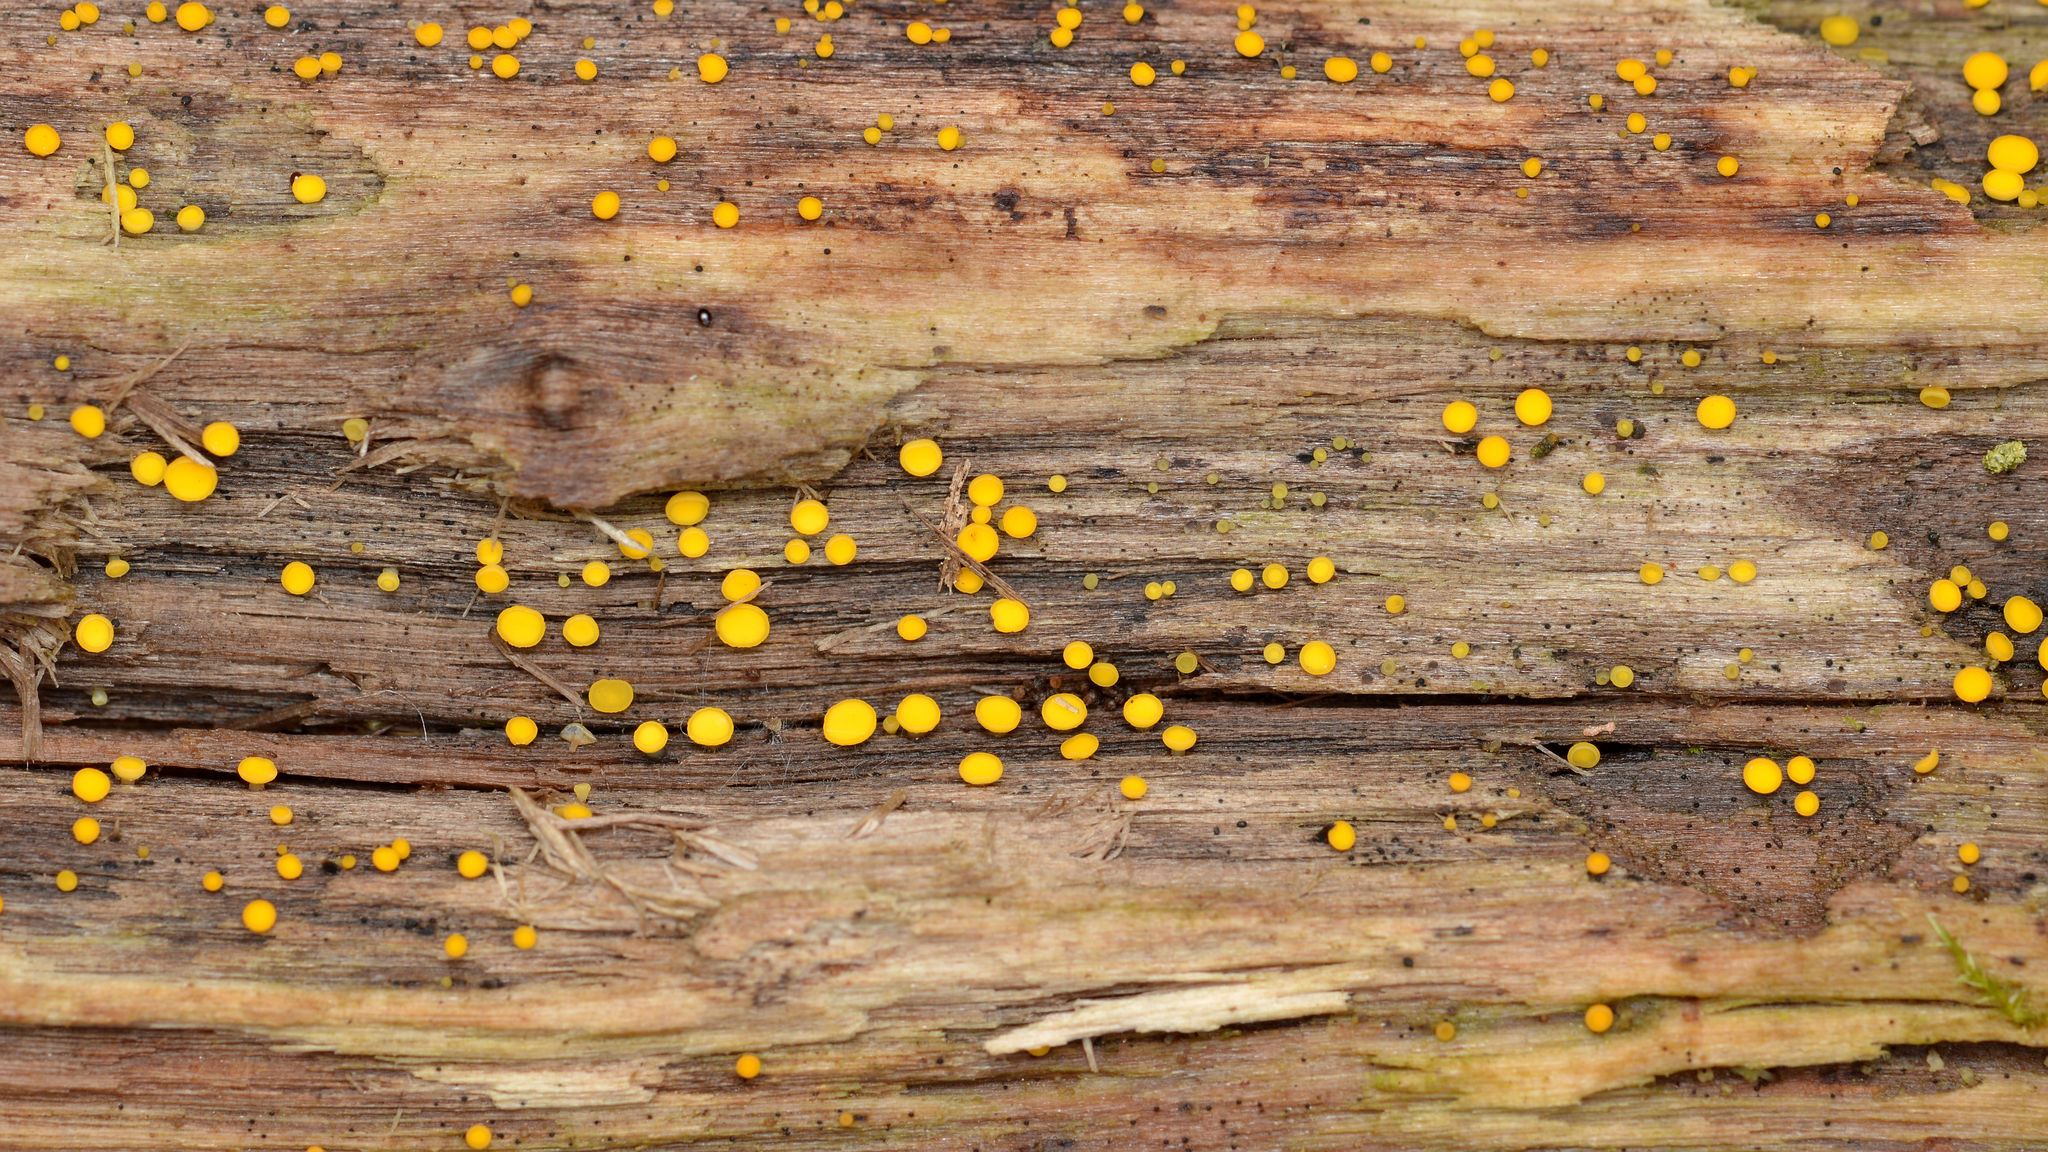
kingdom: Fungi
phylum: Ascomycota
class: Leotiomycetes
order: Helotiales
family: Pezizellaceae
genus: Calycina
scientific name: Calycina citrina
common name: Yellow fairy cups
